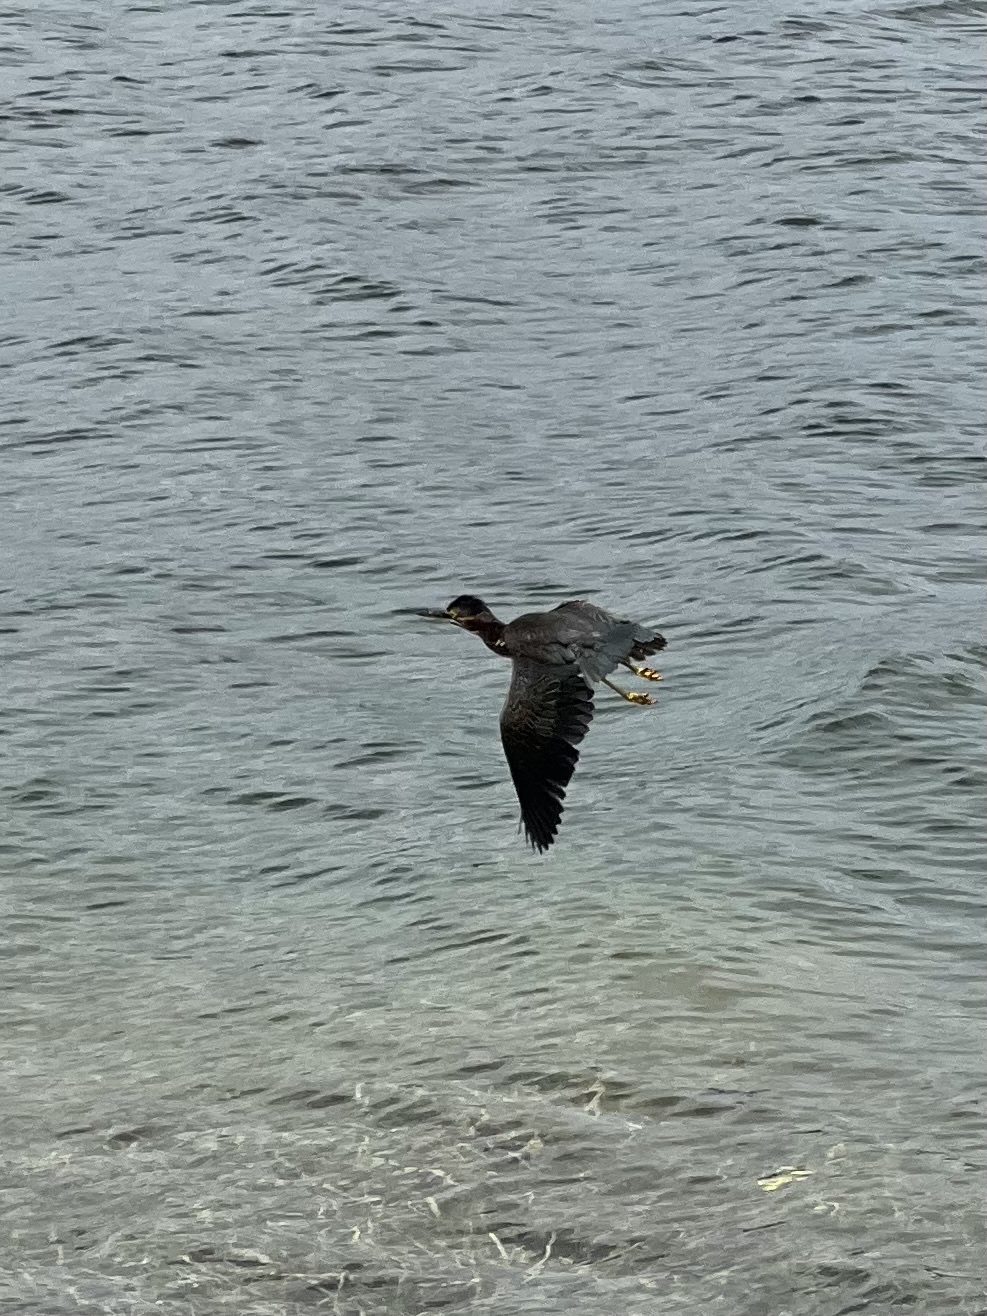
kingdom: Animalia
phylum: Chordata
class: Aves
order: Pelecaniformes
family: Ardeidae
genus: Butorides
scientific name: Butorides virescens
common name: Green heron
